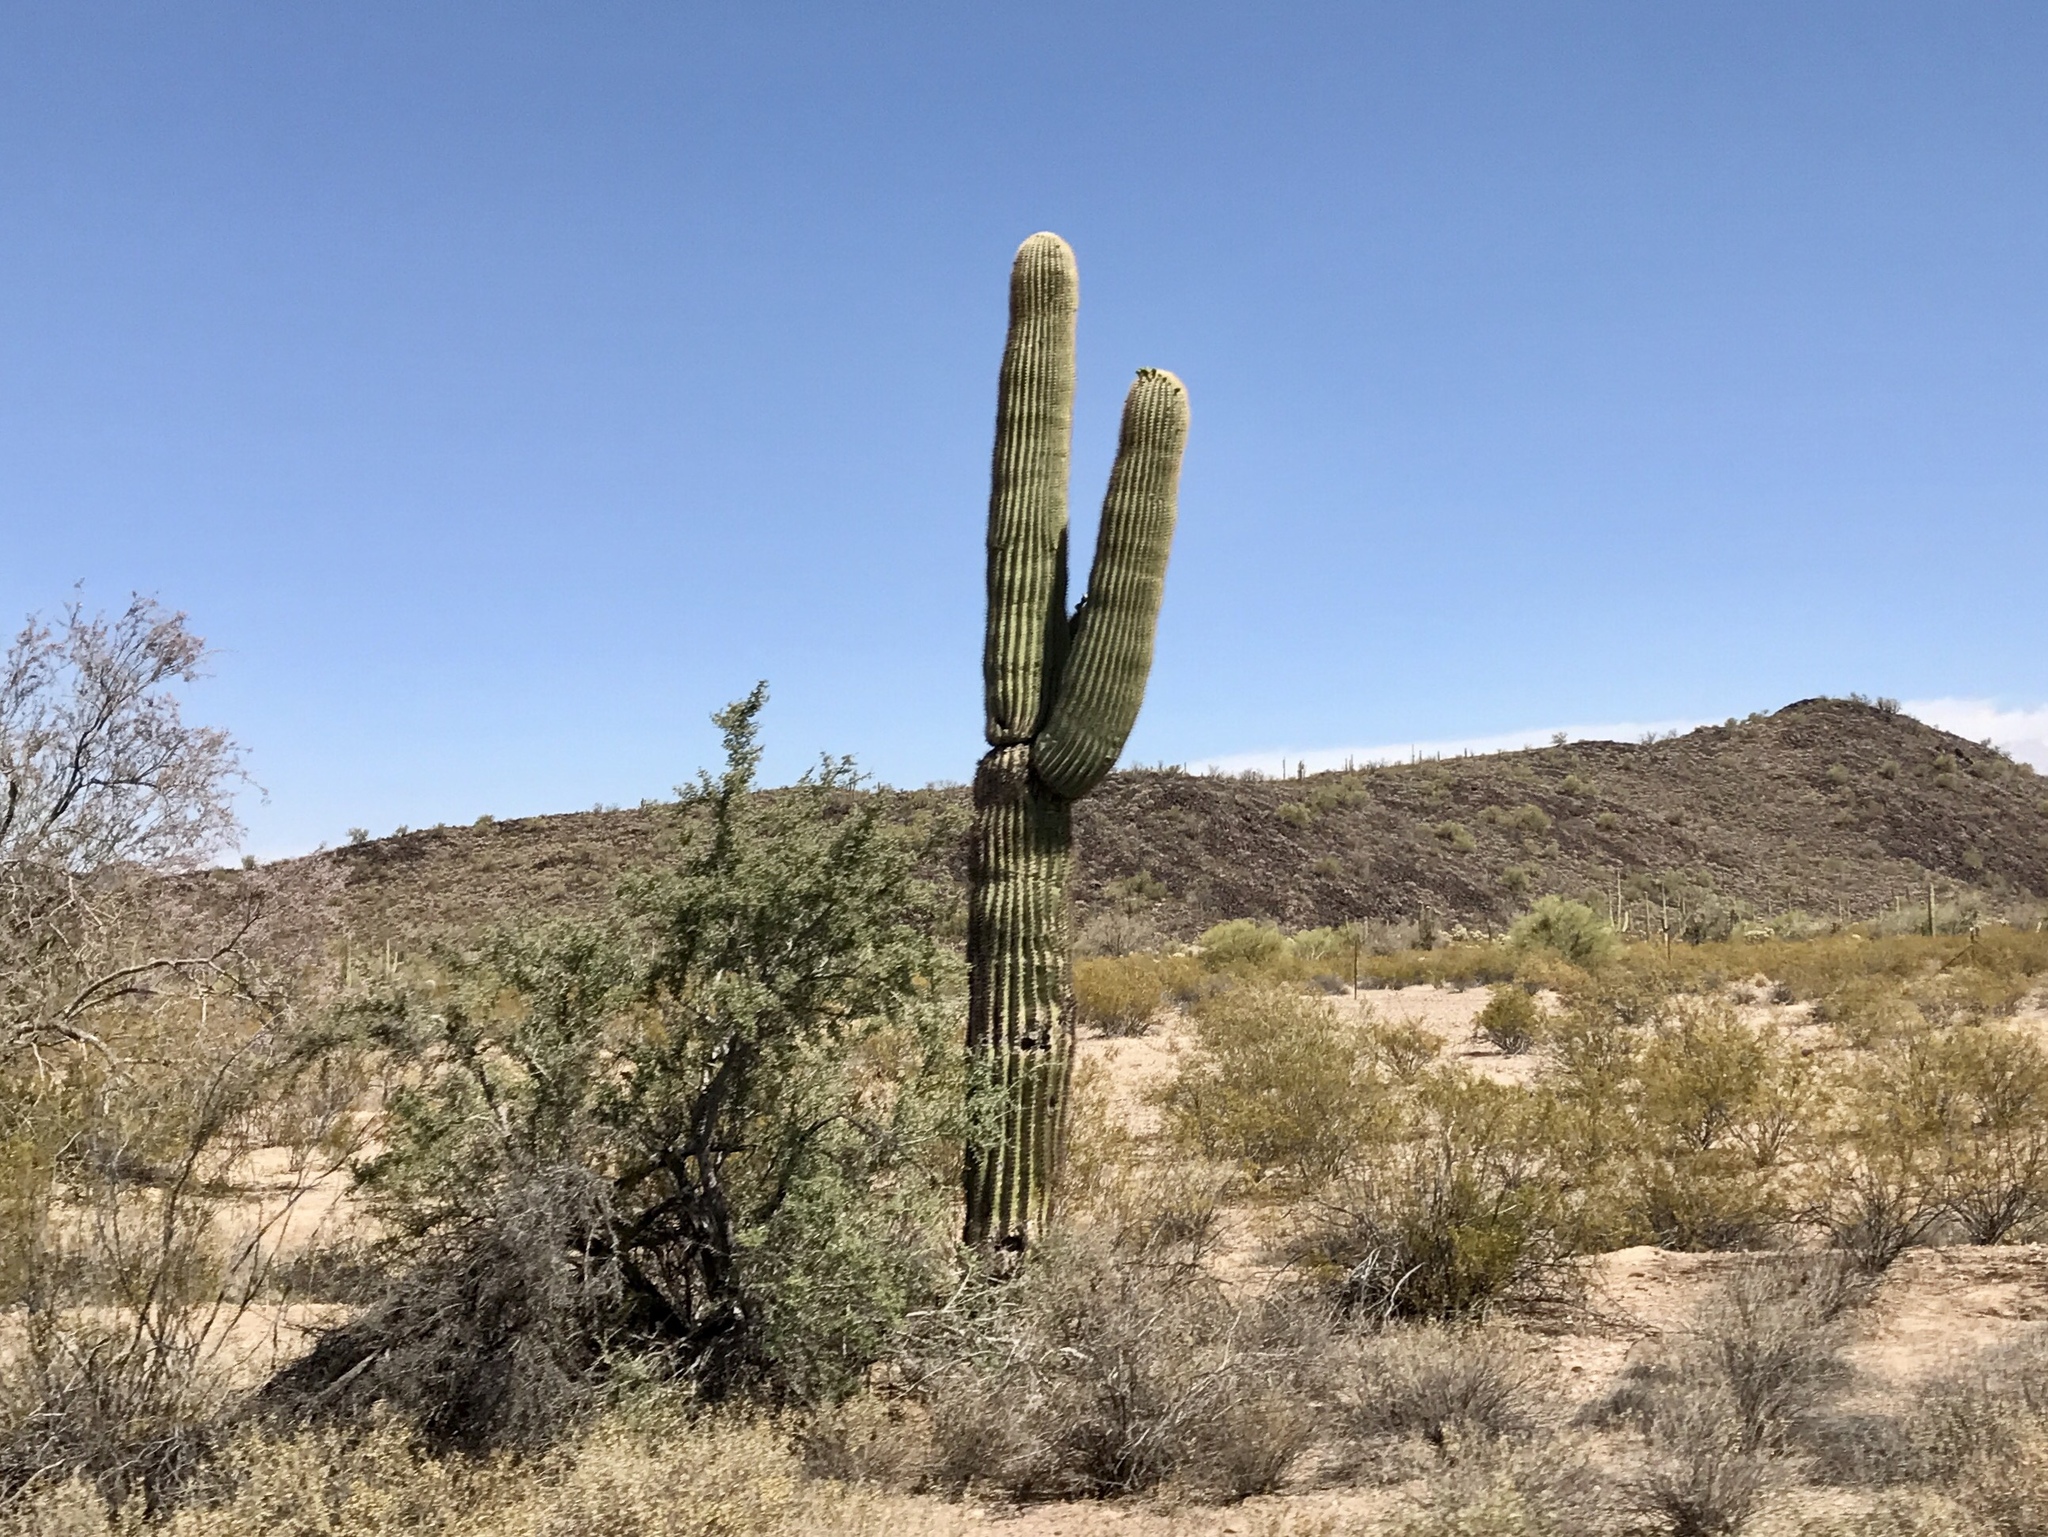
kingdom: Plantae
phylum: Tracheophyta
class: Magnoliopsida
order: Caryophyllales
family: Cactaceae
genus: Carnegiea
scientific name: Carnegiea gigantea
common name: Saguaro
